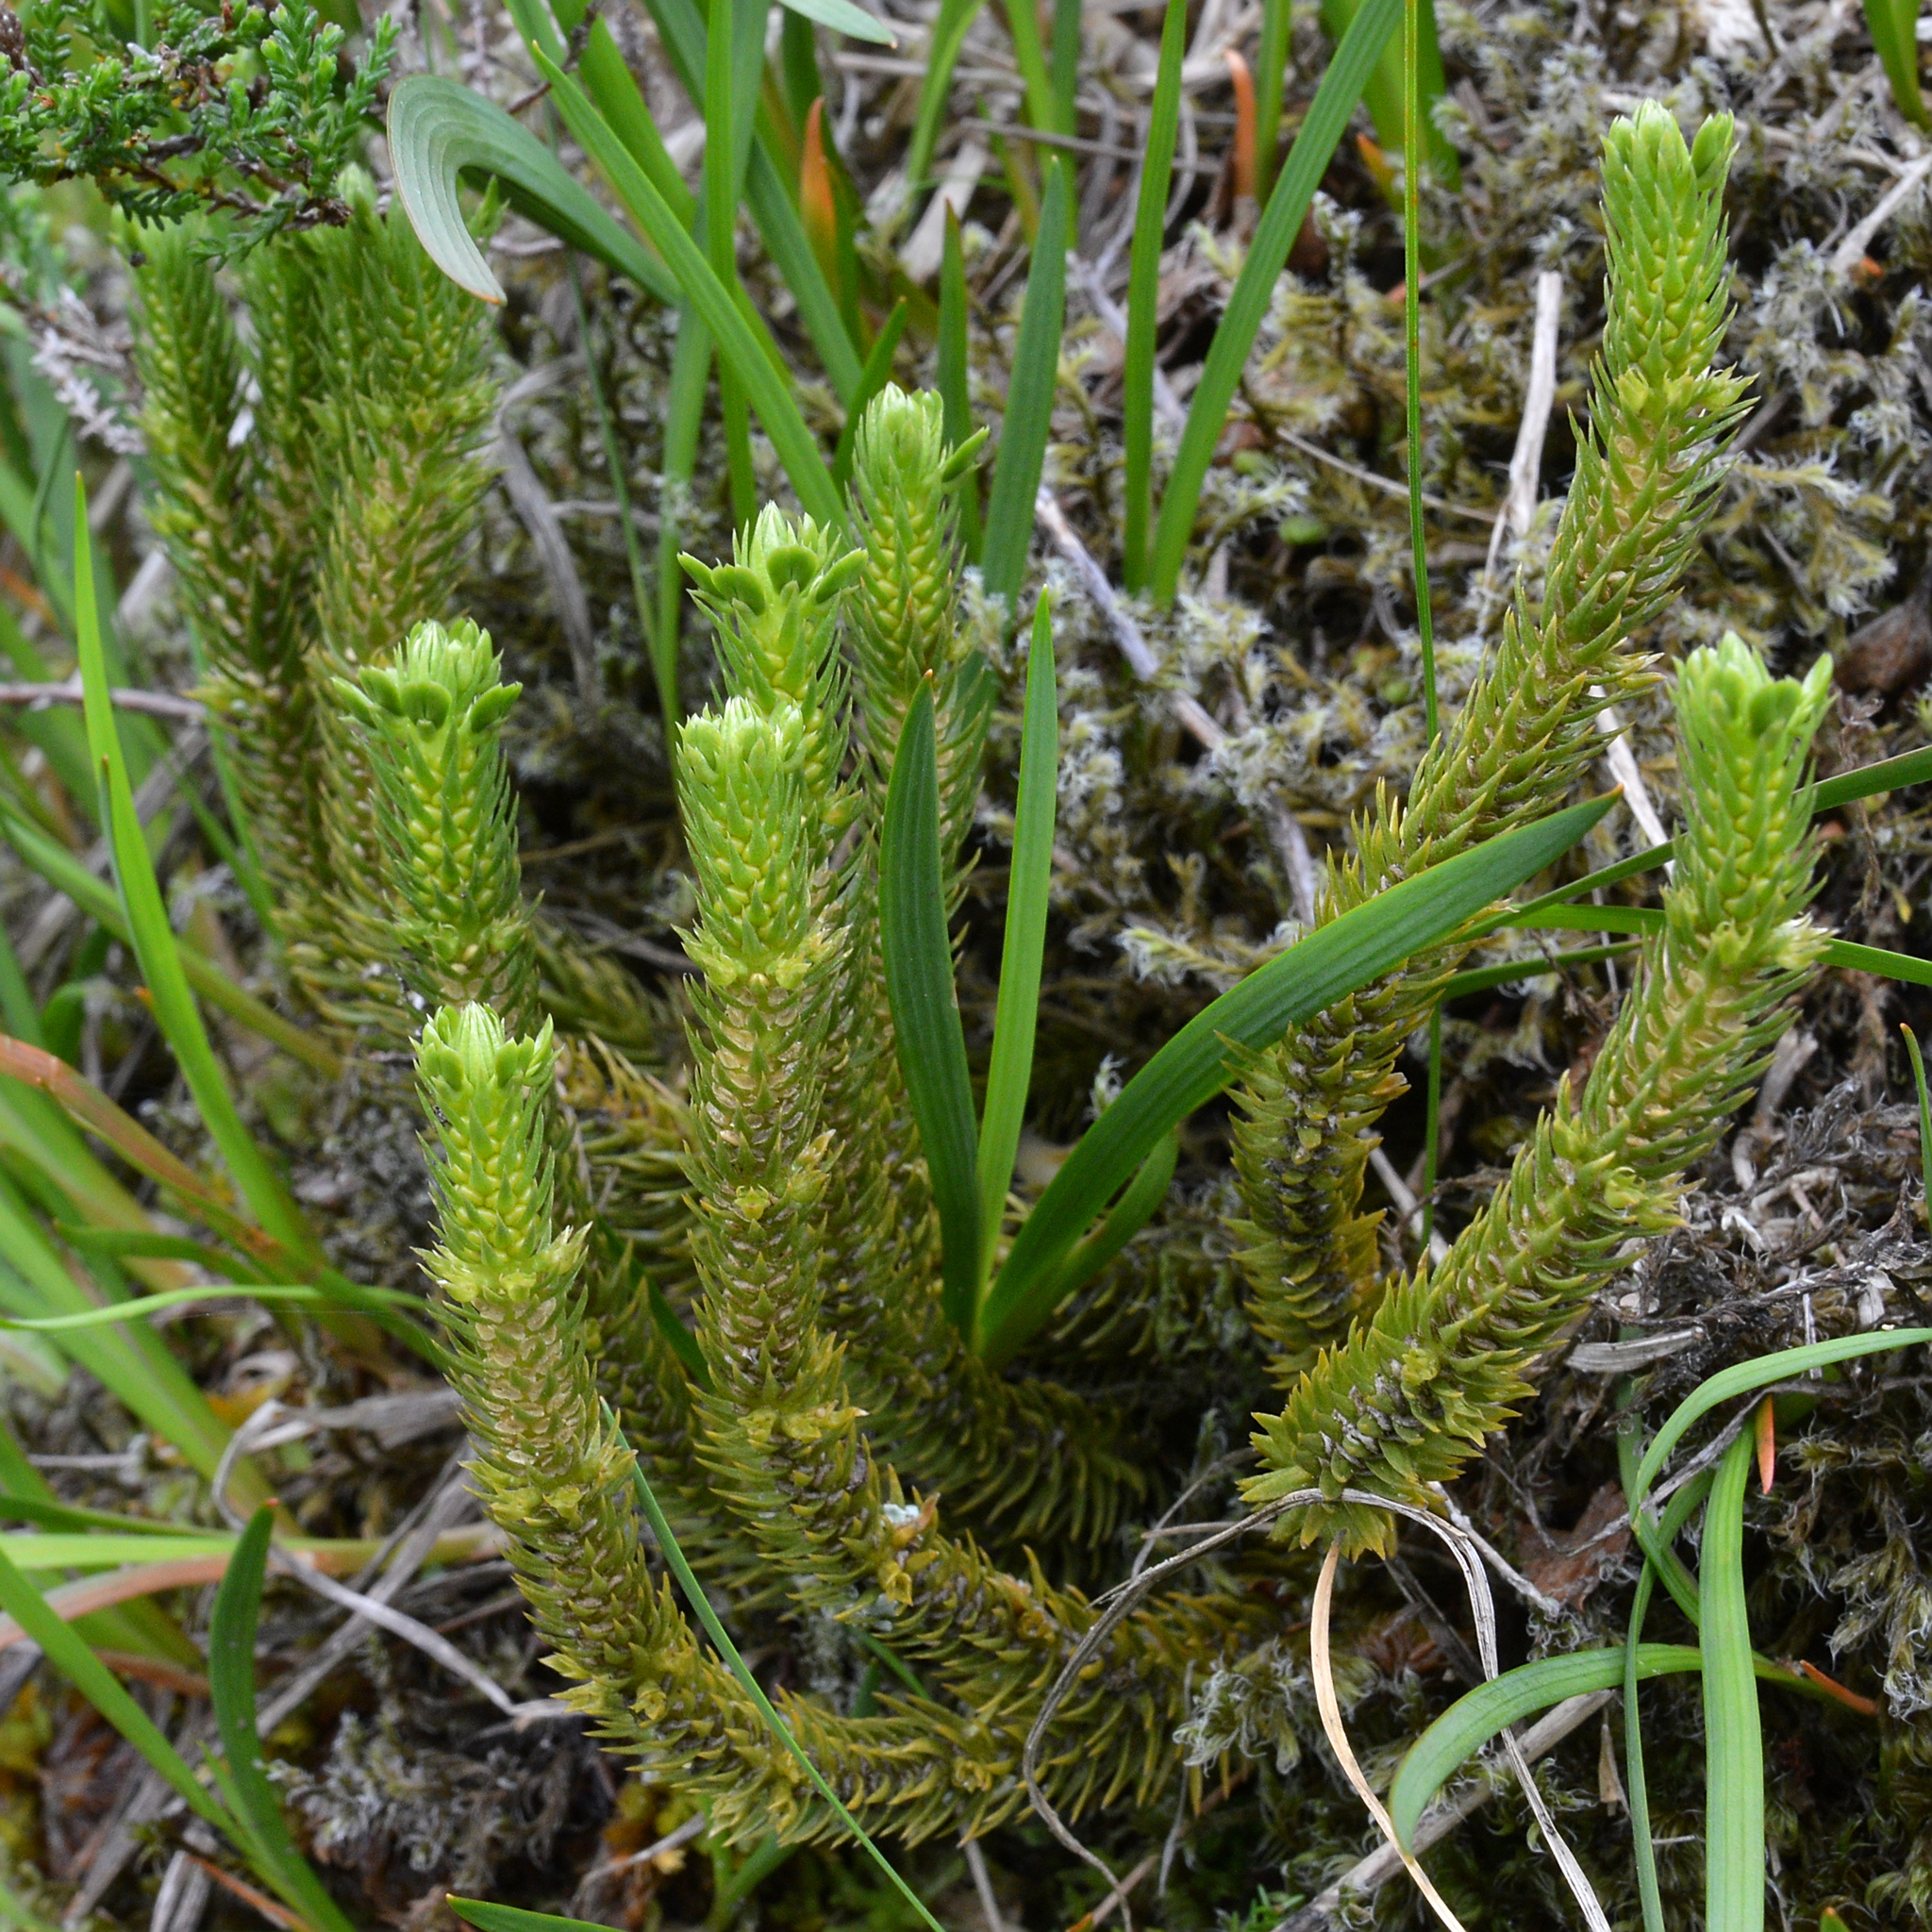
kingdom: Plantae
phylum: Tracheophyta
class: Lycopodiopsida
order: Lycopodiales
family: Lycopodiaceae
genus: Huperzia
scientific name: Huperzia selago
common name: Northern firmoss
